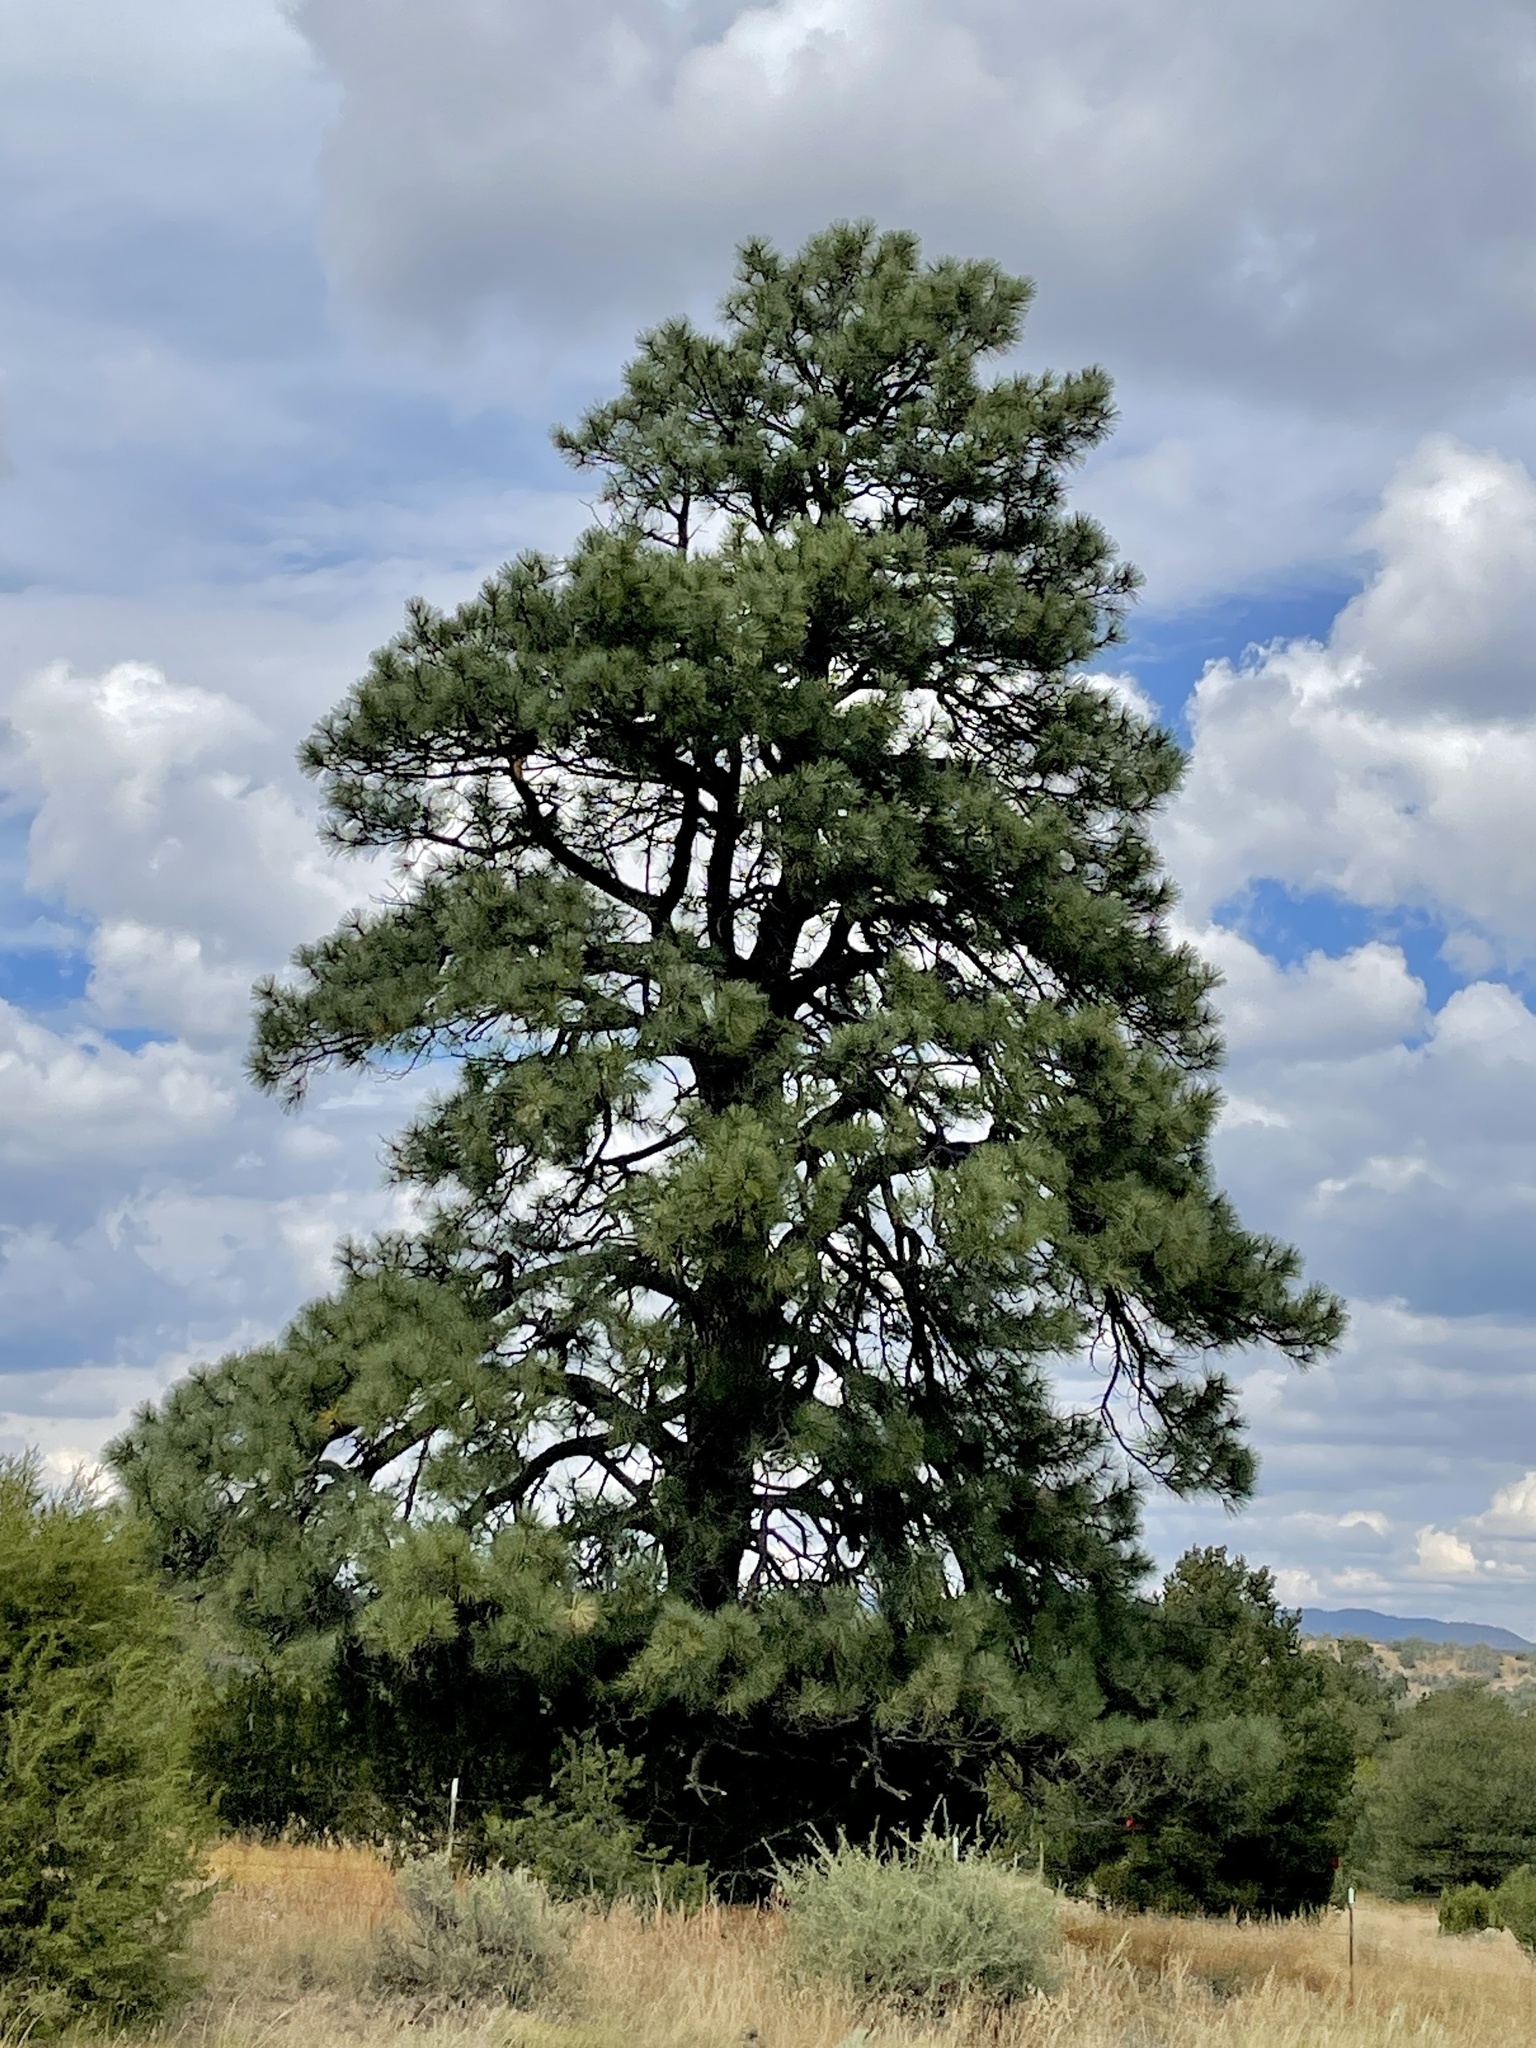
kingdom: Plantae
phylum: Tracheophyta
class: Pinopsida
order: Pinales
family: Pinaceae
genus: Pinus
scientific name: Pinus ponderosa
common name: Western yellow-pine
